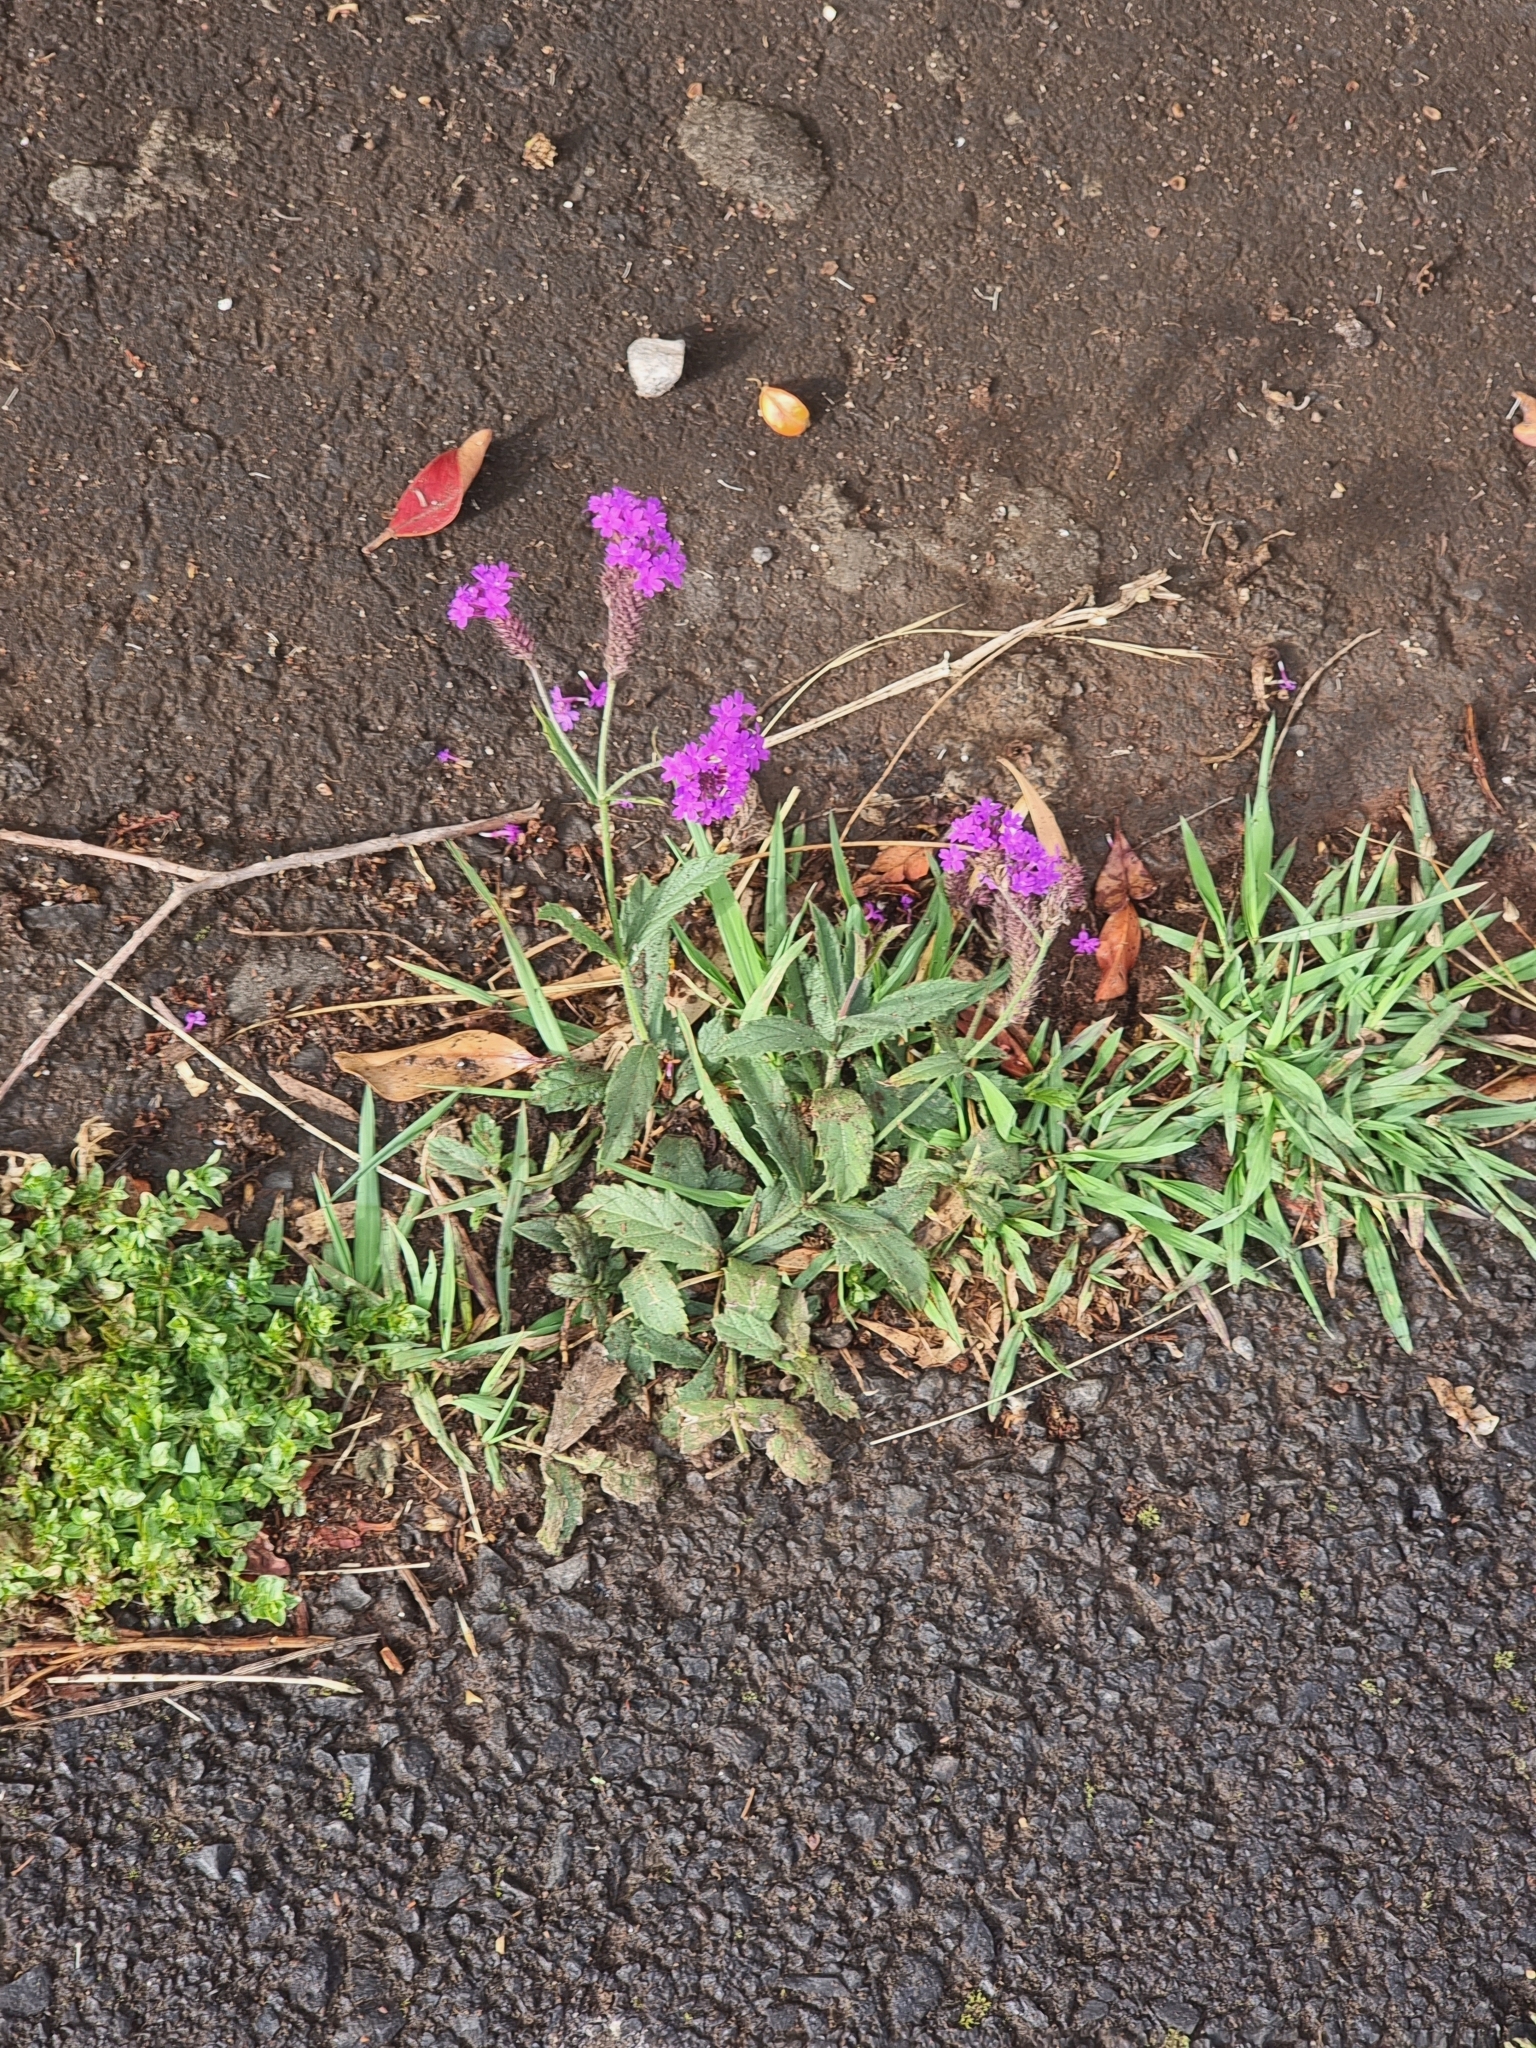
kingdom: Plantae
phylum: Tracheophyta
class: Magnoliopsida
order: Lamiales
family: Verbenaceae
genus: Verbena
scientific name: Verbena rigida
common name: Slender vervain
